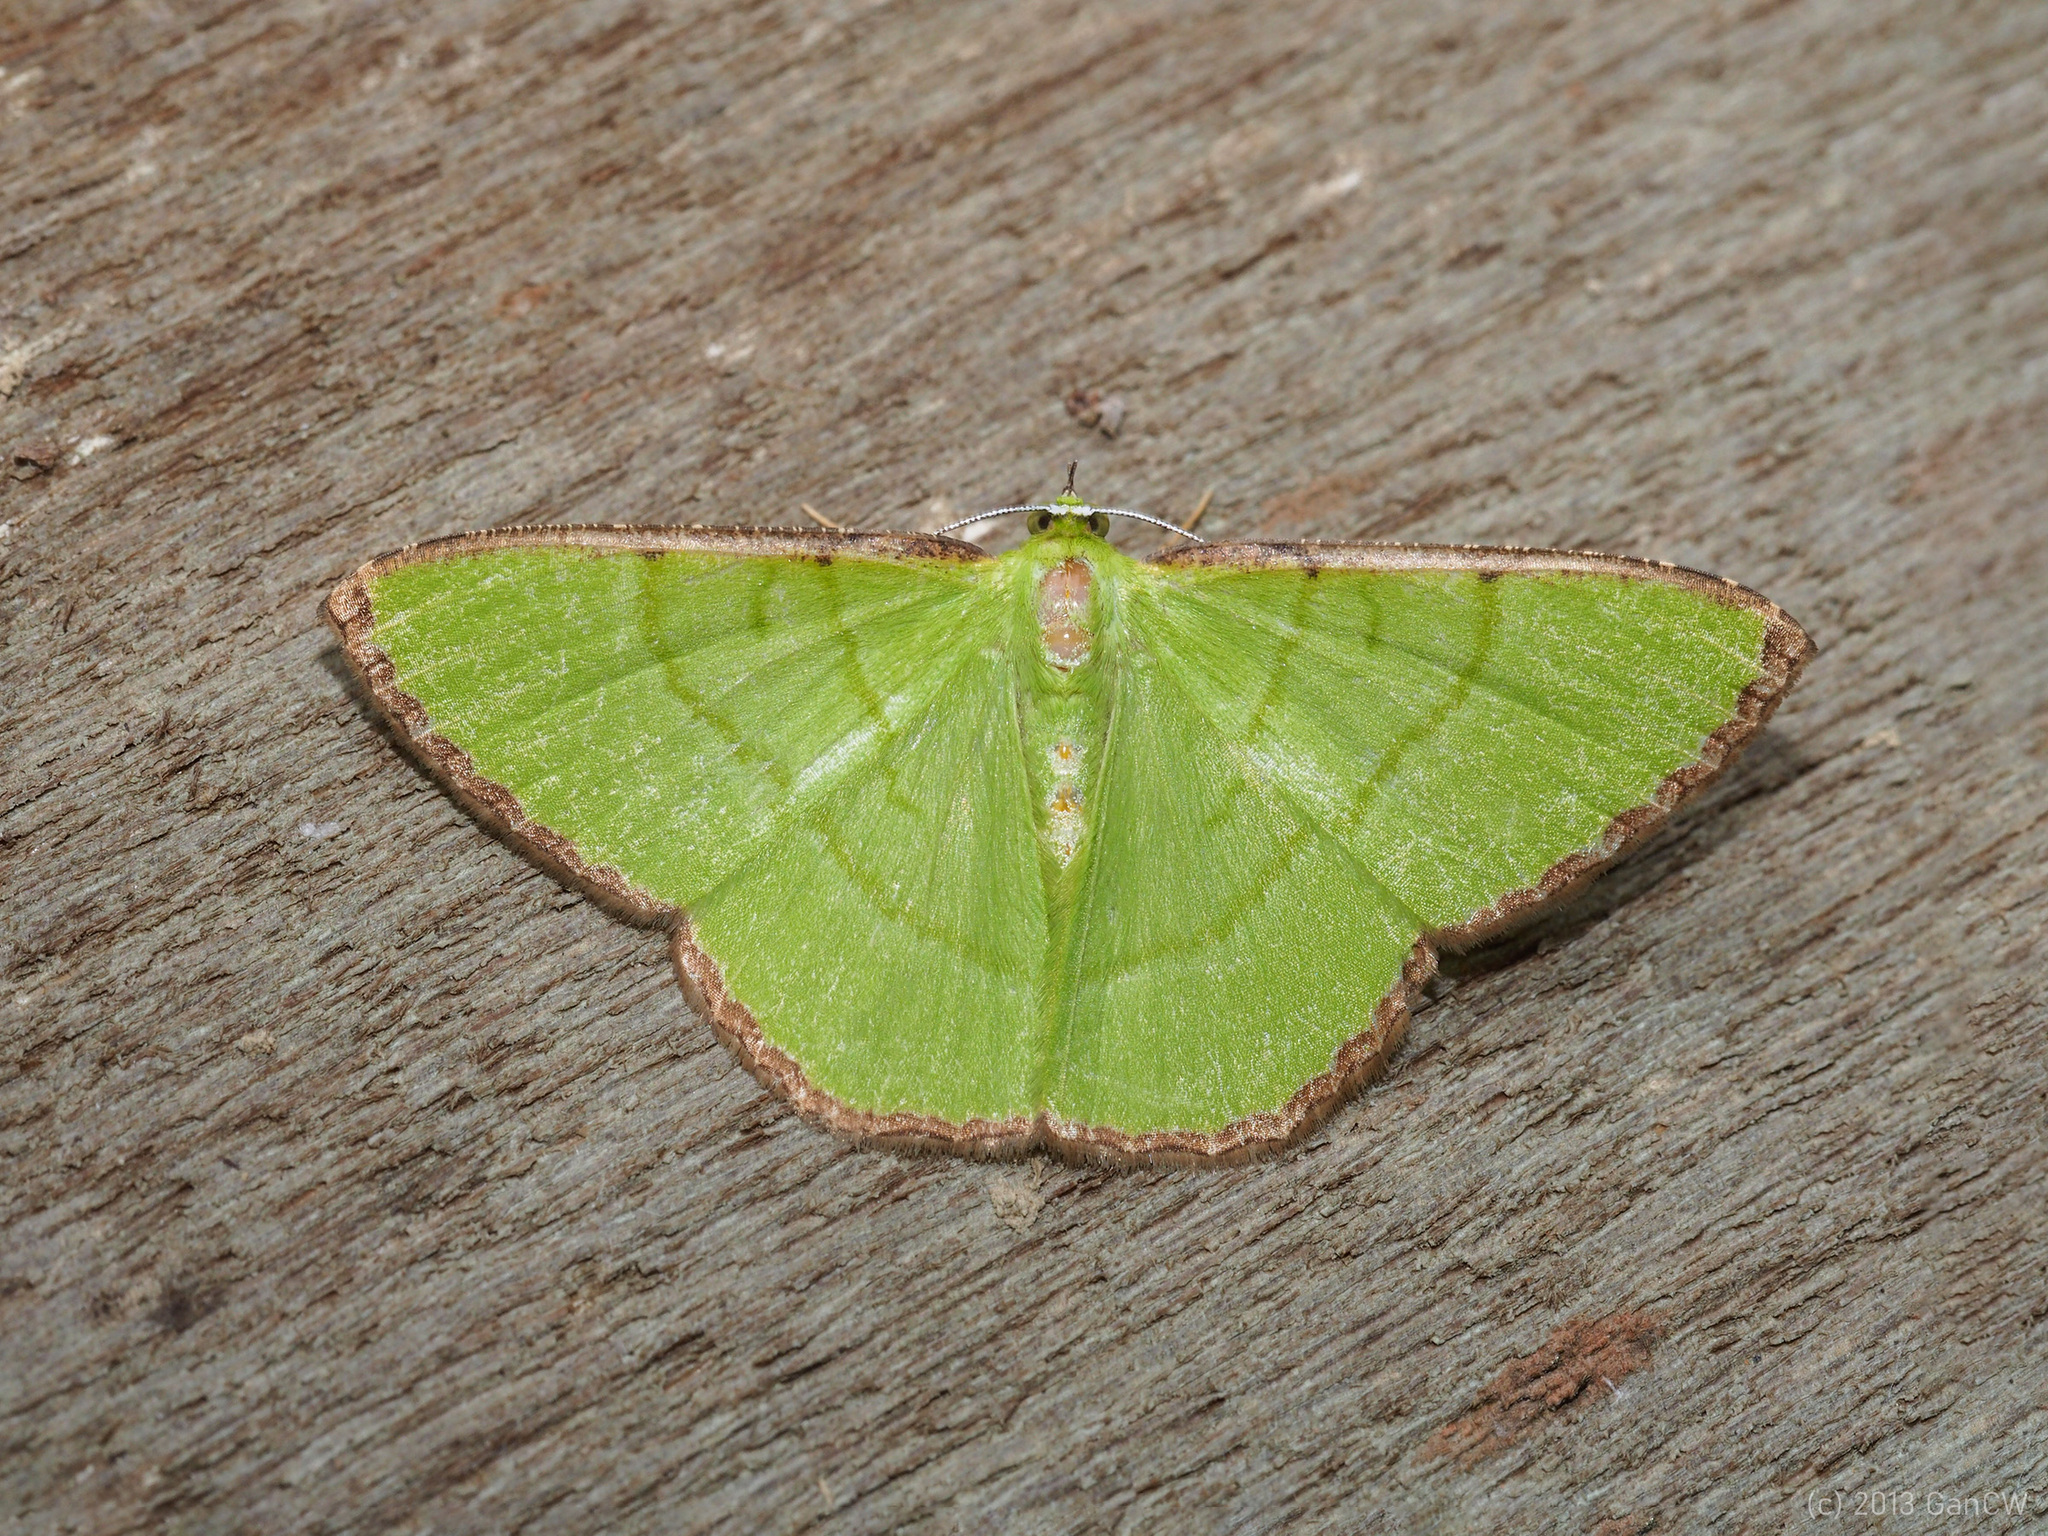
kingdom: Animalia
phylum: Arthropoda
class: Insecta
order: Lepidoptera
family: Geometridae
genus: Ornithospila
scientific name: Ornithospila cincta
